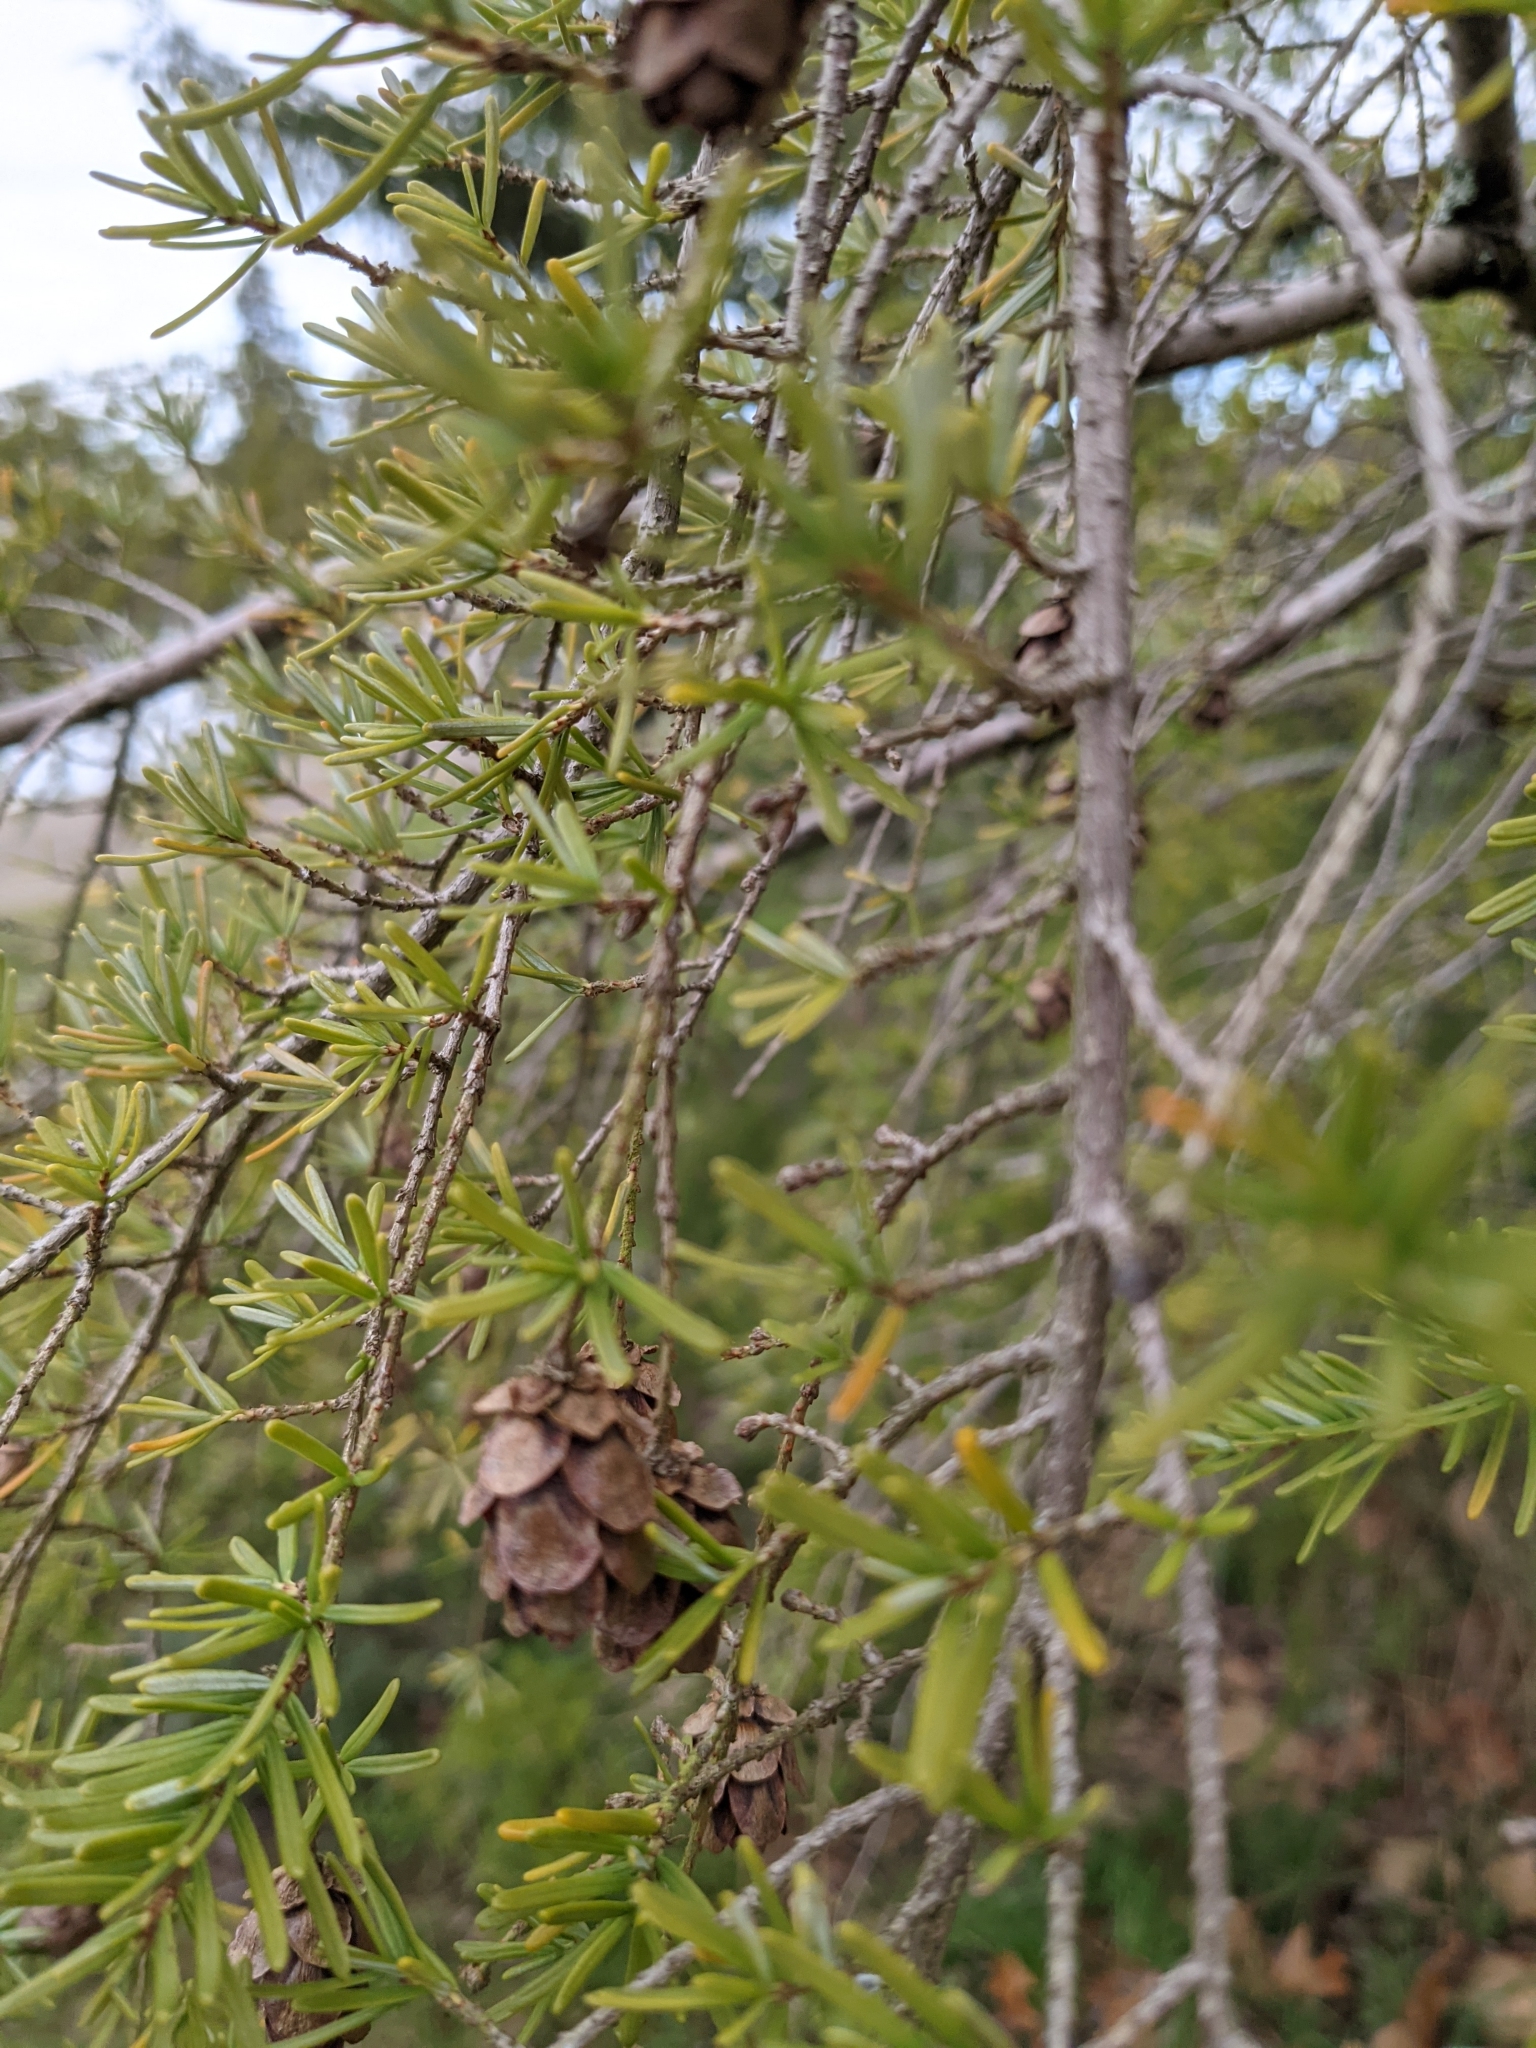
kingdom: Plantae
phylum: Tracheophyta
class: Pinopsida
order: Pinales
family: Pinaceae
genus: Tsuga
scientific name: Tsuga heterophylla
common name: Western hemlock
